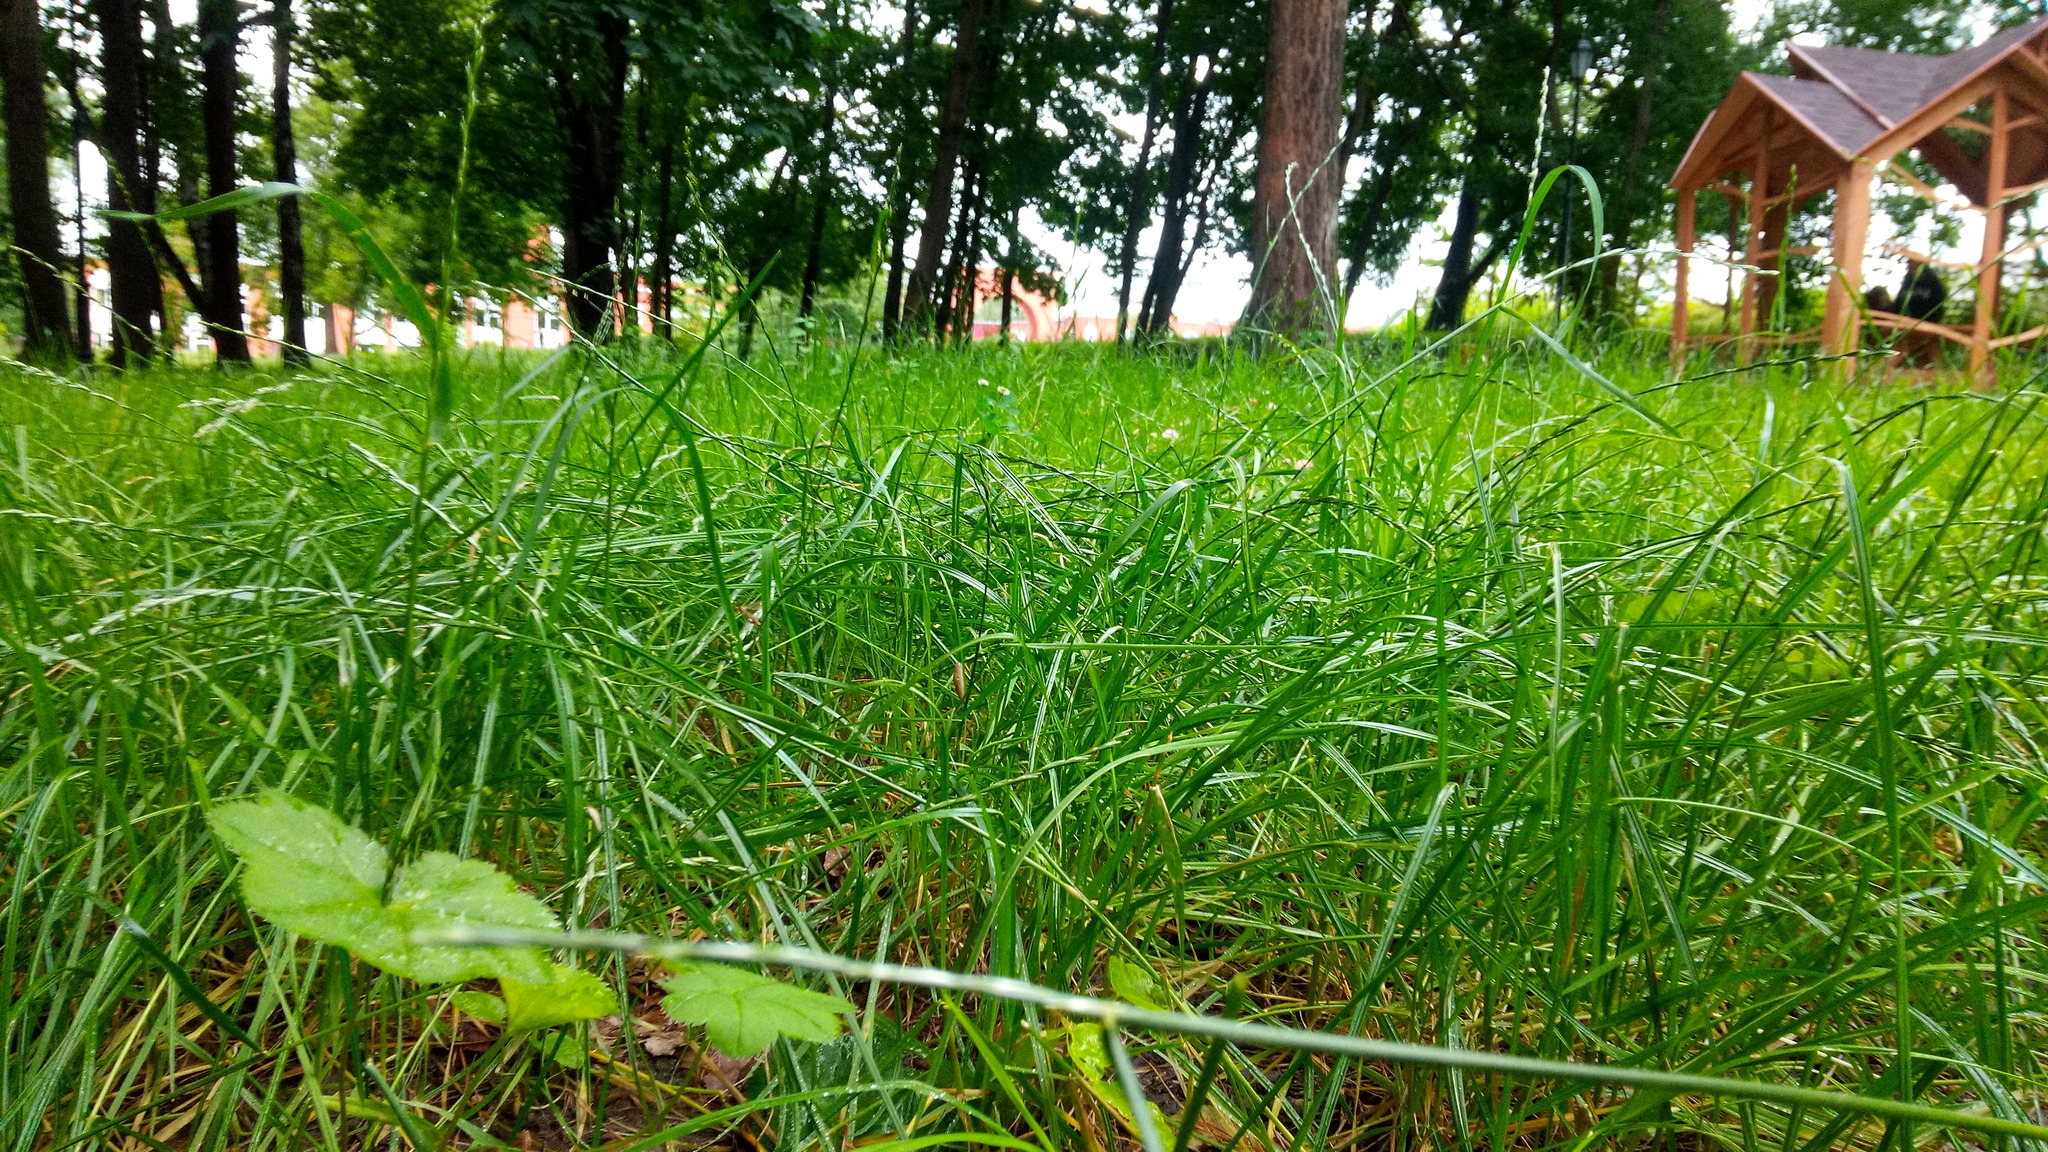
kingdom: Plantae
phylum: Tracheophyta
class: Magnoliopsida
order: Rosales
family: Rosaceae
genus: Alchemilla
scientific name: Alchemilla
